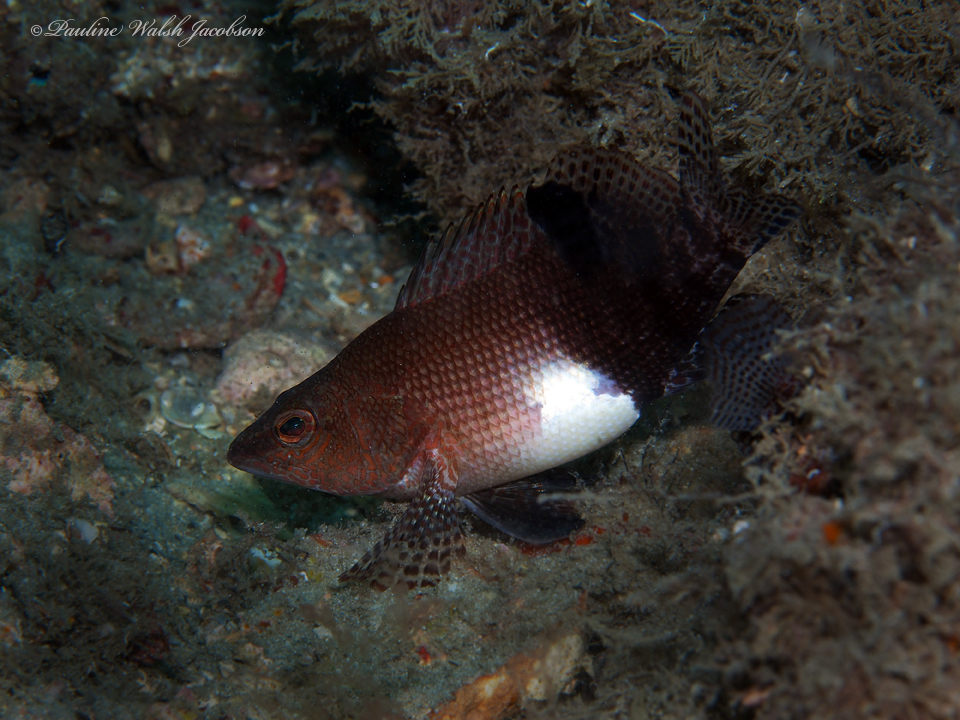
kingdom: Animalia
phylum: Chordata
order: Perciformes
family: Serranidae
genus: Serranus
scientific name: Serranus subligarius
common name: Belted sandfish
